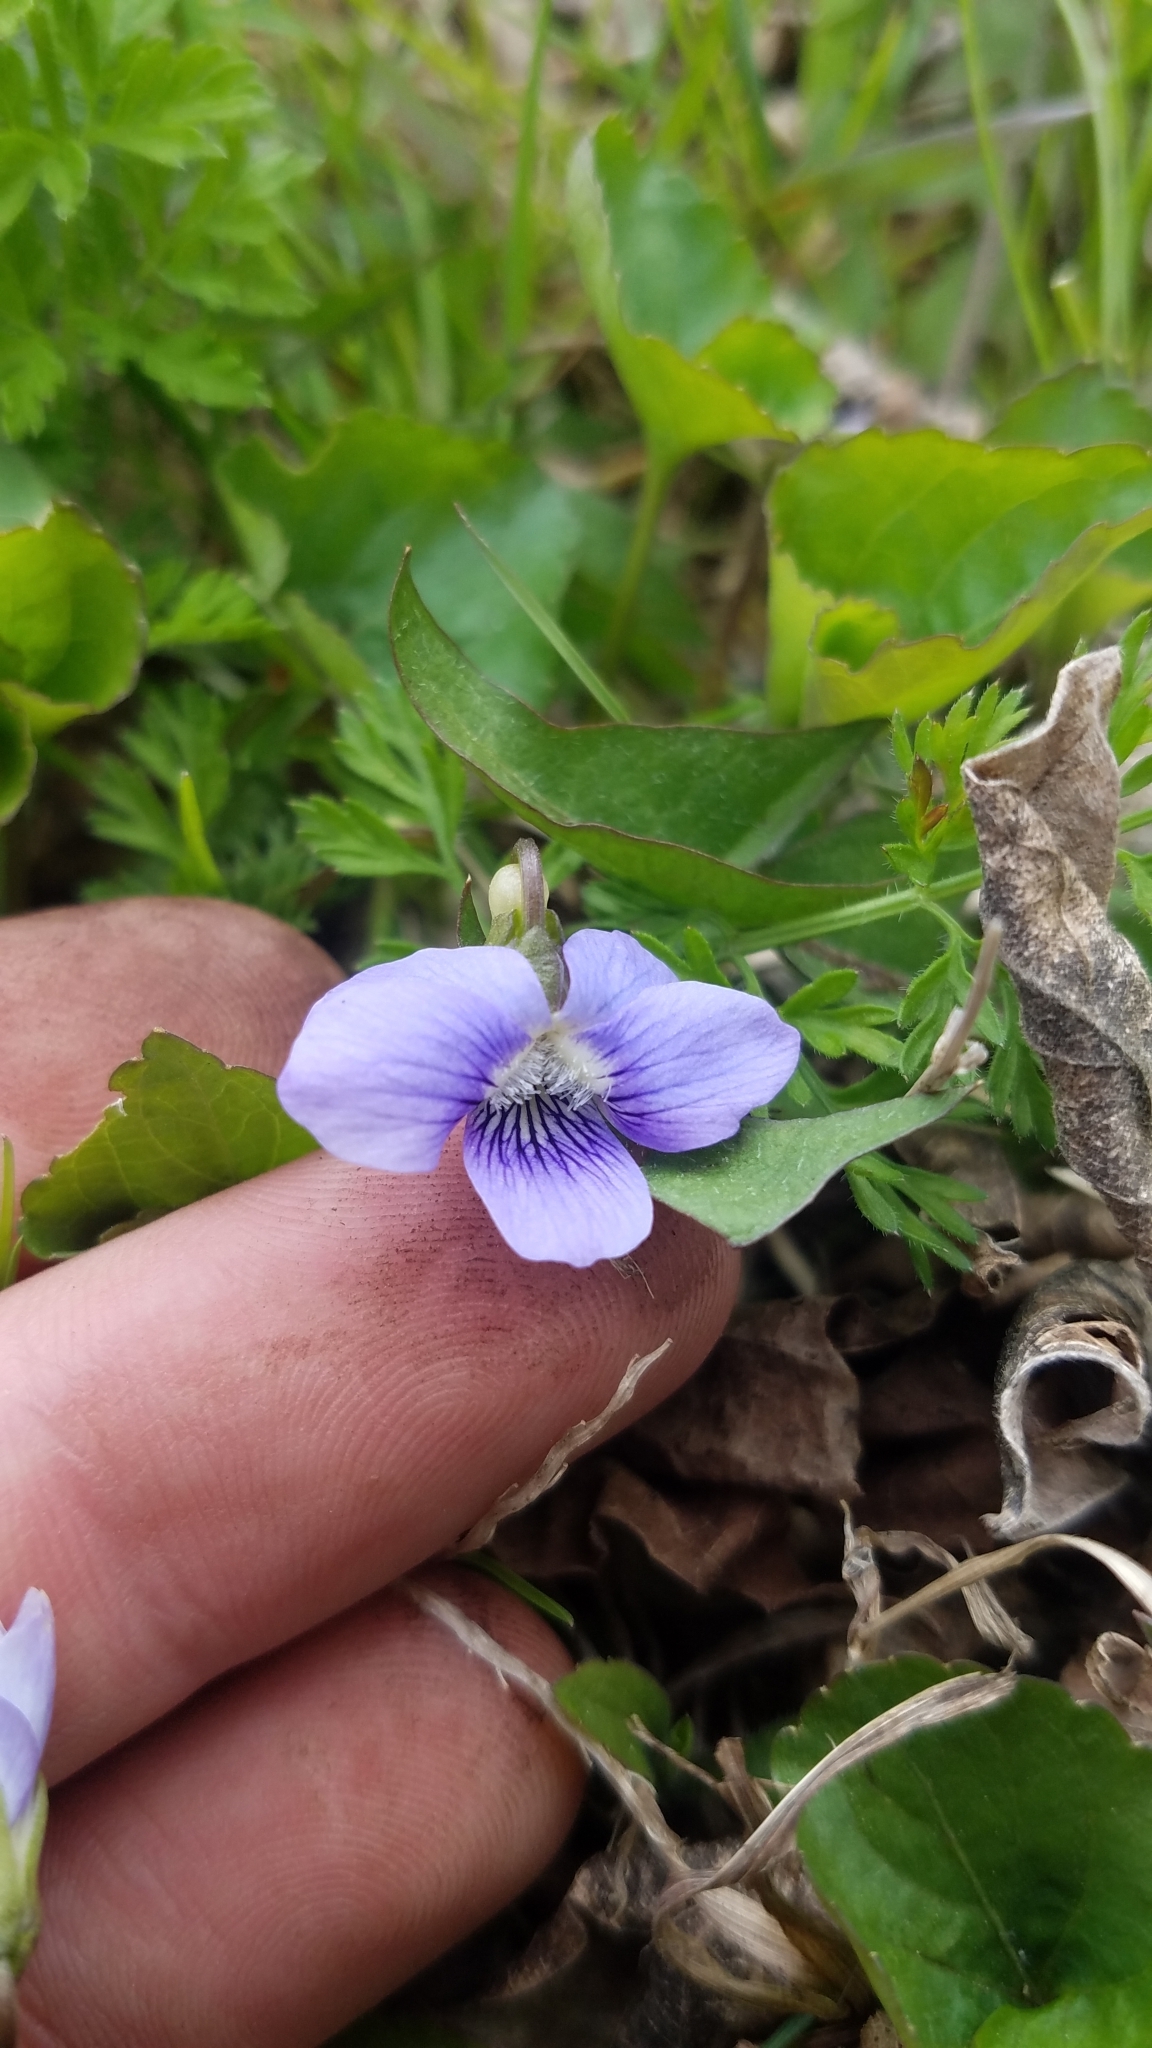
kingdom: Plantae
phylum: Tracheophyta
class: Magnoliopsida
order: Malpighiales
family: Violaceae
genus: Viola
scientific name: Viola sororia
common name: Dooryard violet
